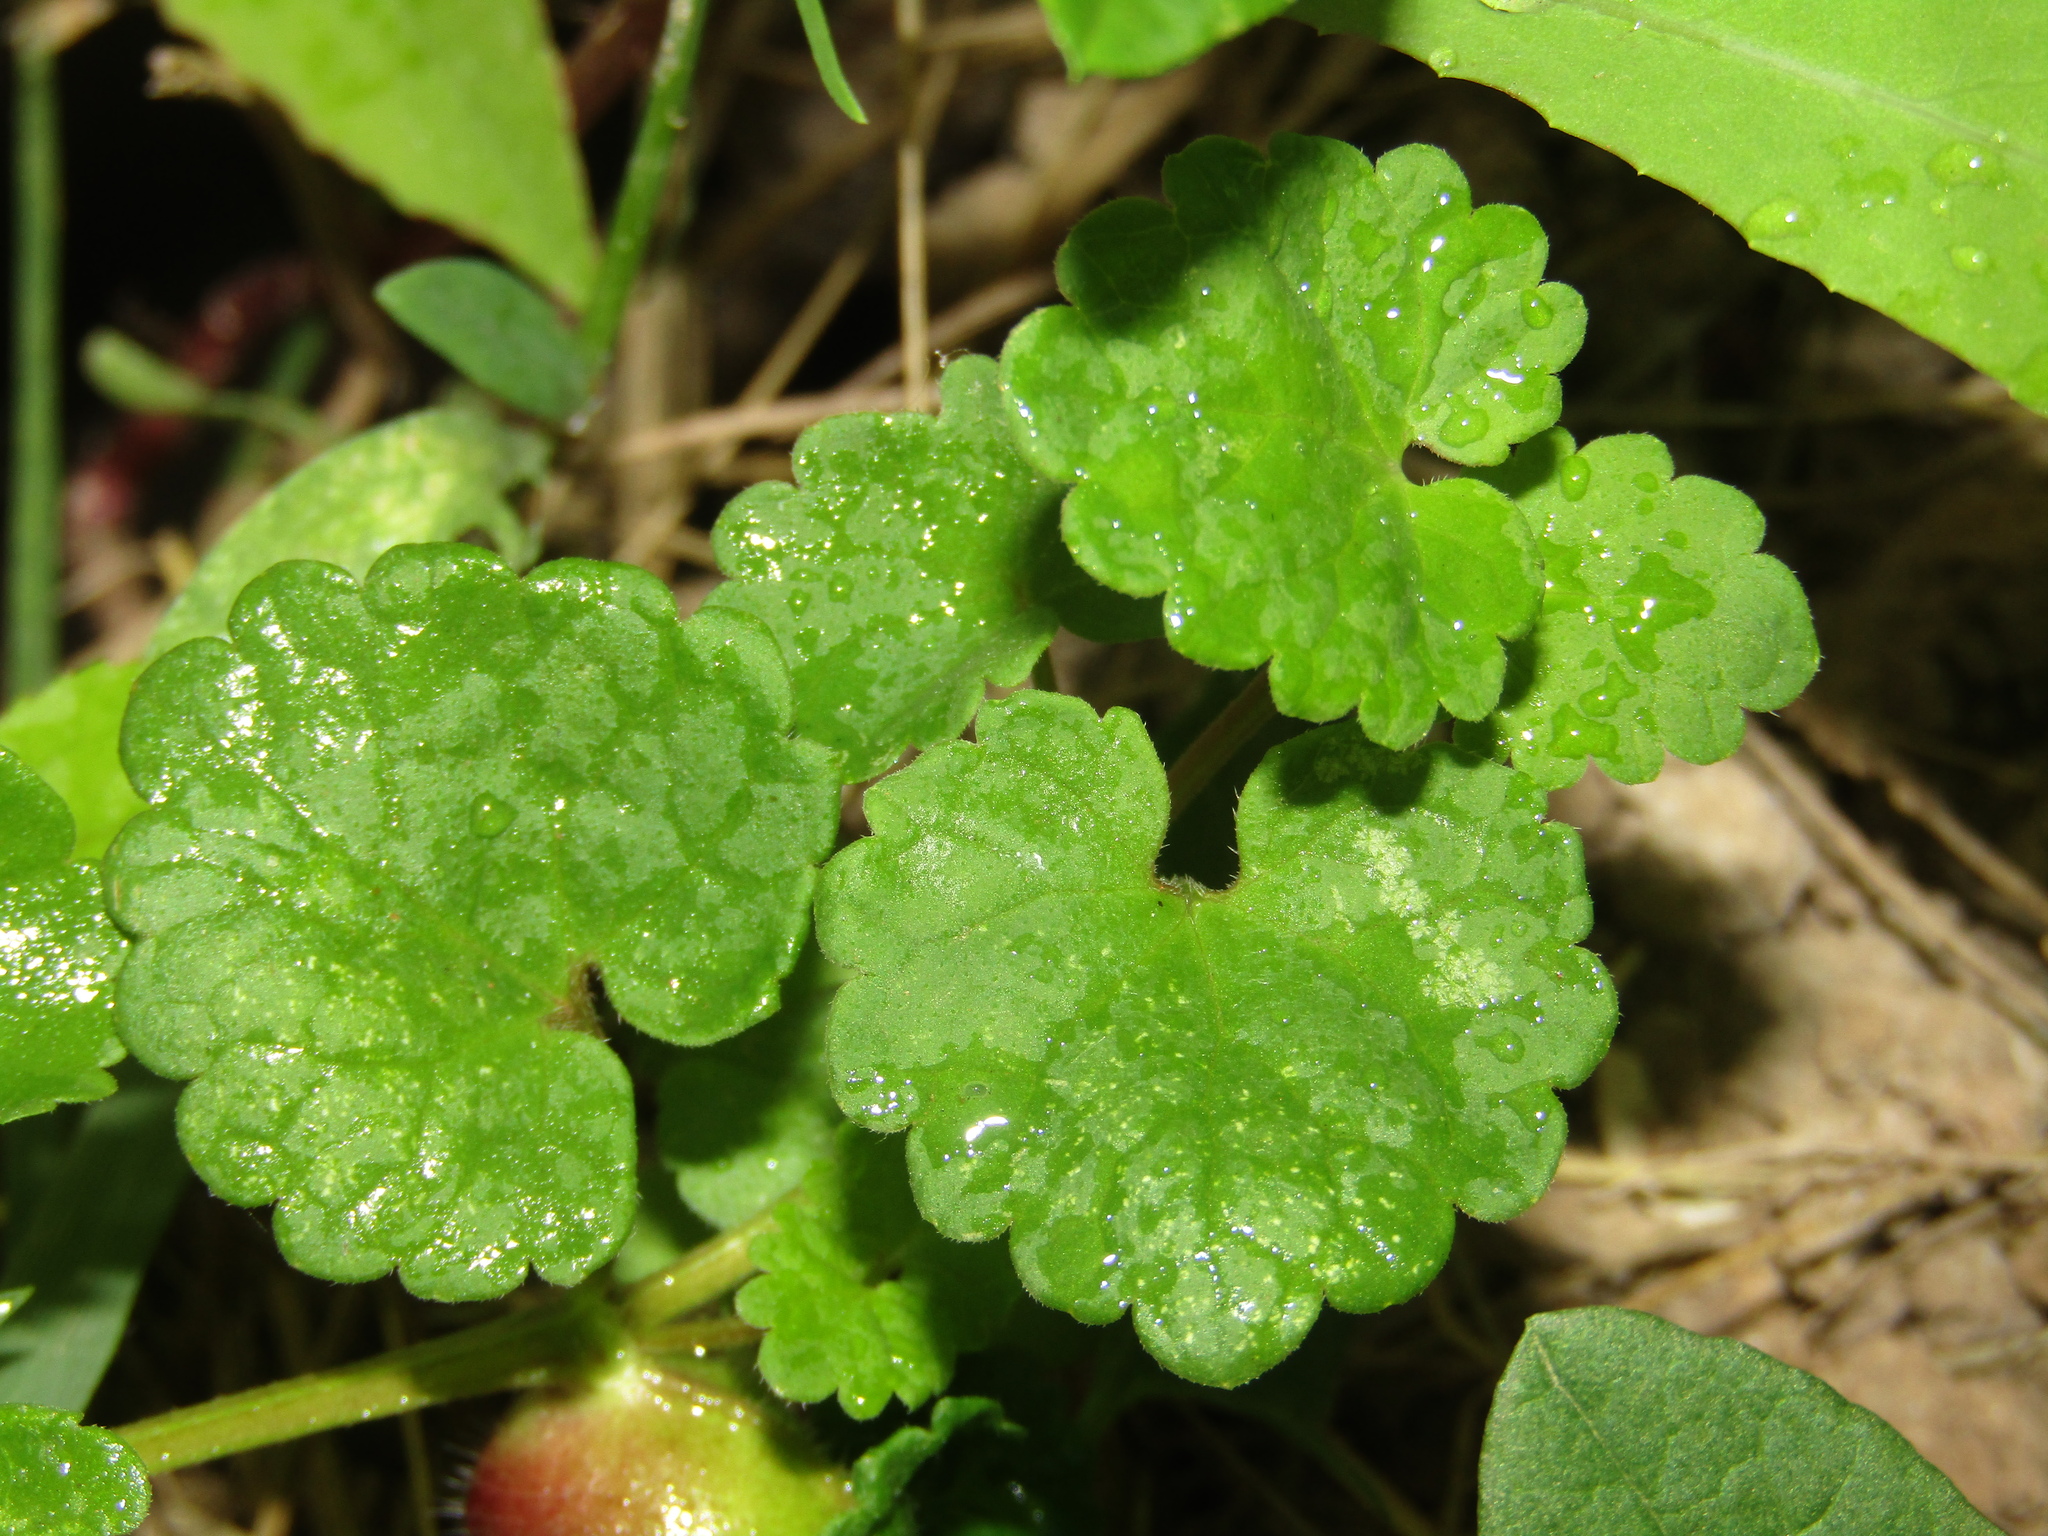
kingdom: Plantae
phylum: Tracheophyta
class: Magnoliopsida
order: Lamiales
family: Lamiaceae
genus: Glechoma
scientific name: Glechoma hederacea
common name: Ground ivy
